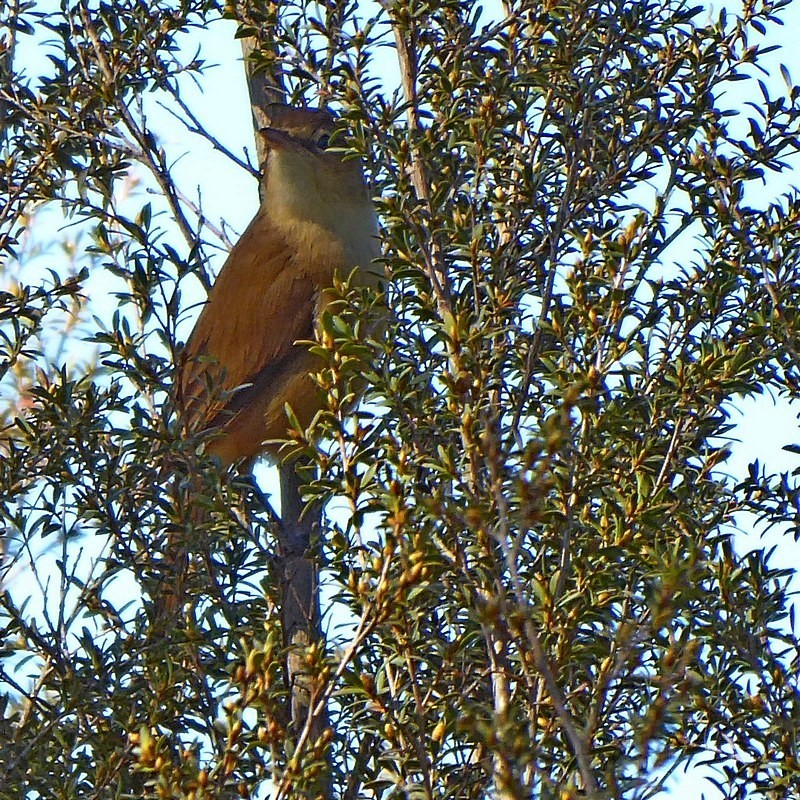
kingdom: Animalia
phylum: Chordata
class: Aves
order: Passeriformes
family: Acrocephalidae
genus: Acrocephalus
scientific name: Acrocephalus australis
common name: Australian reed warbler
